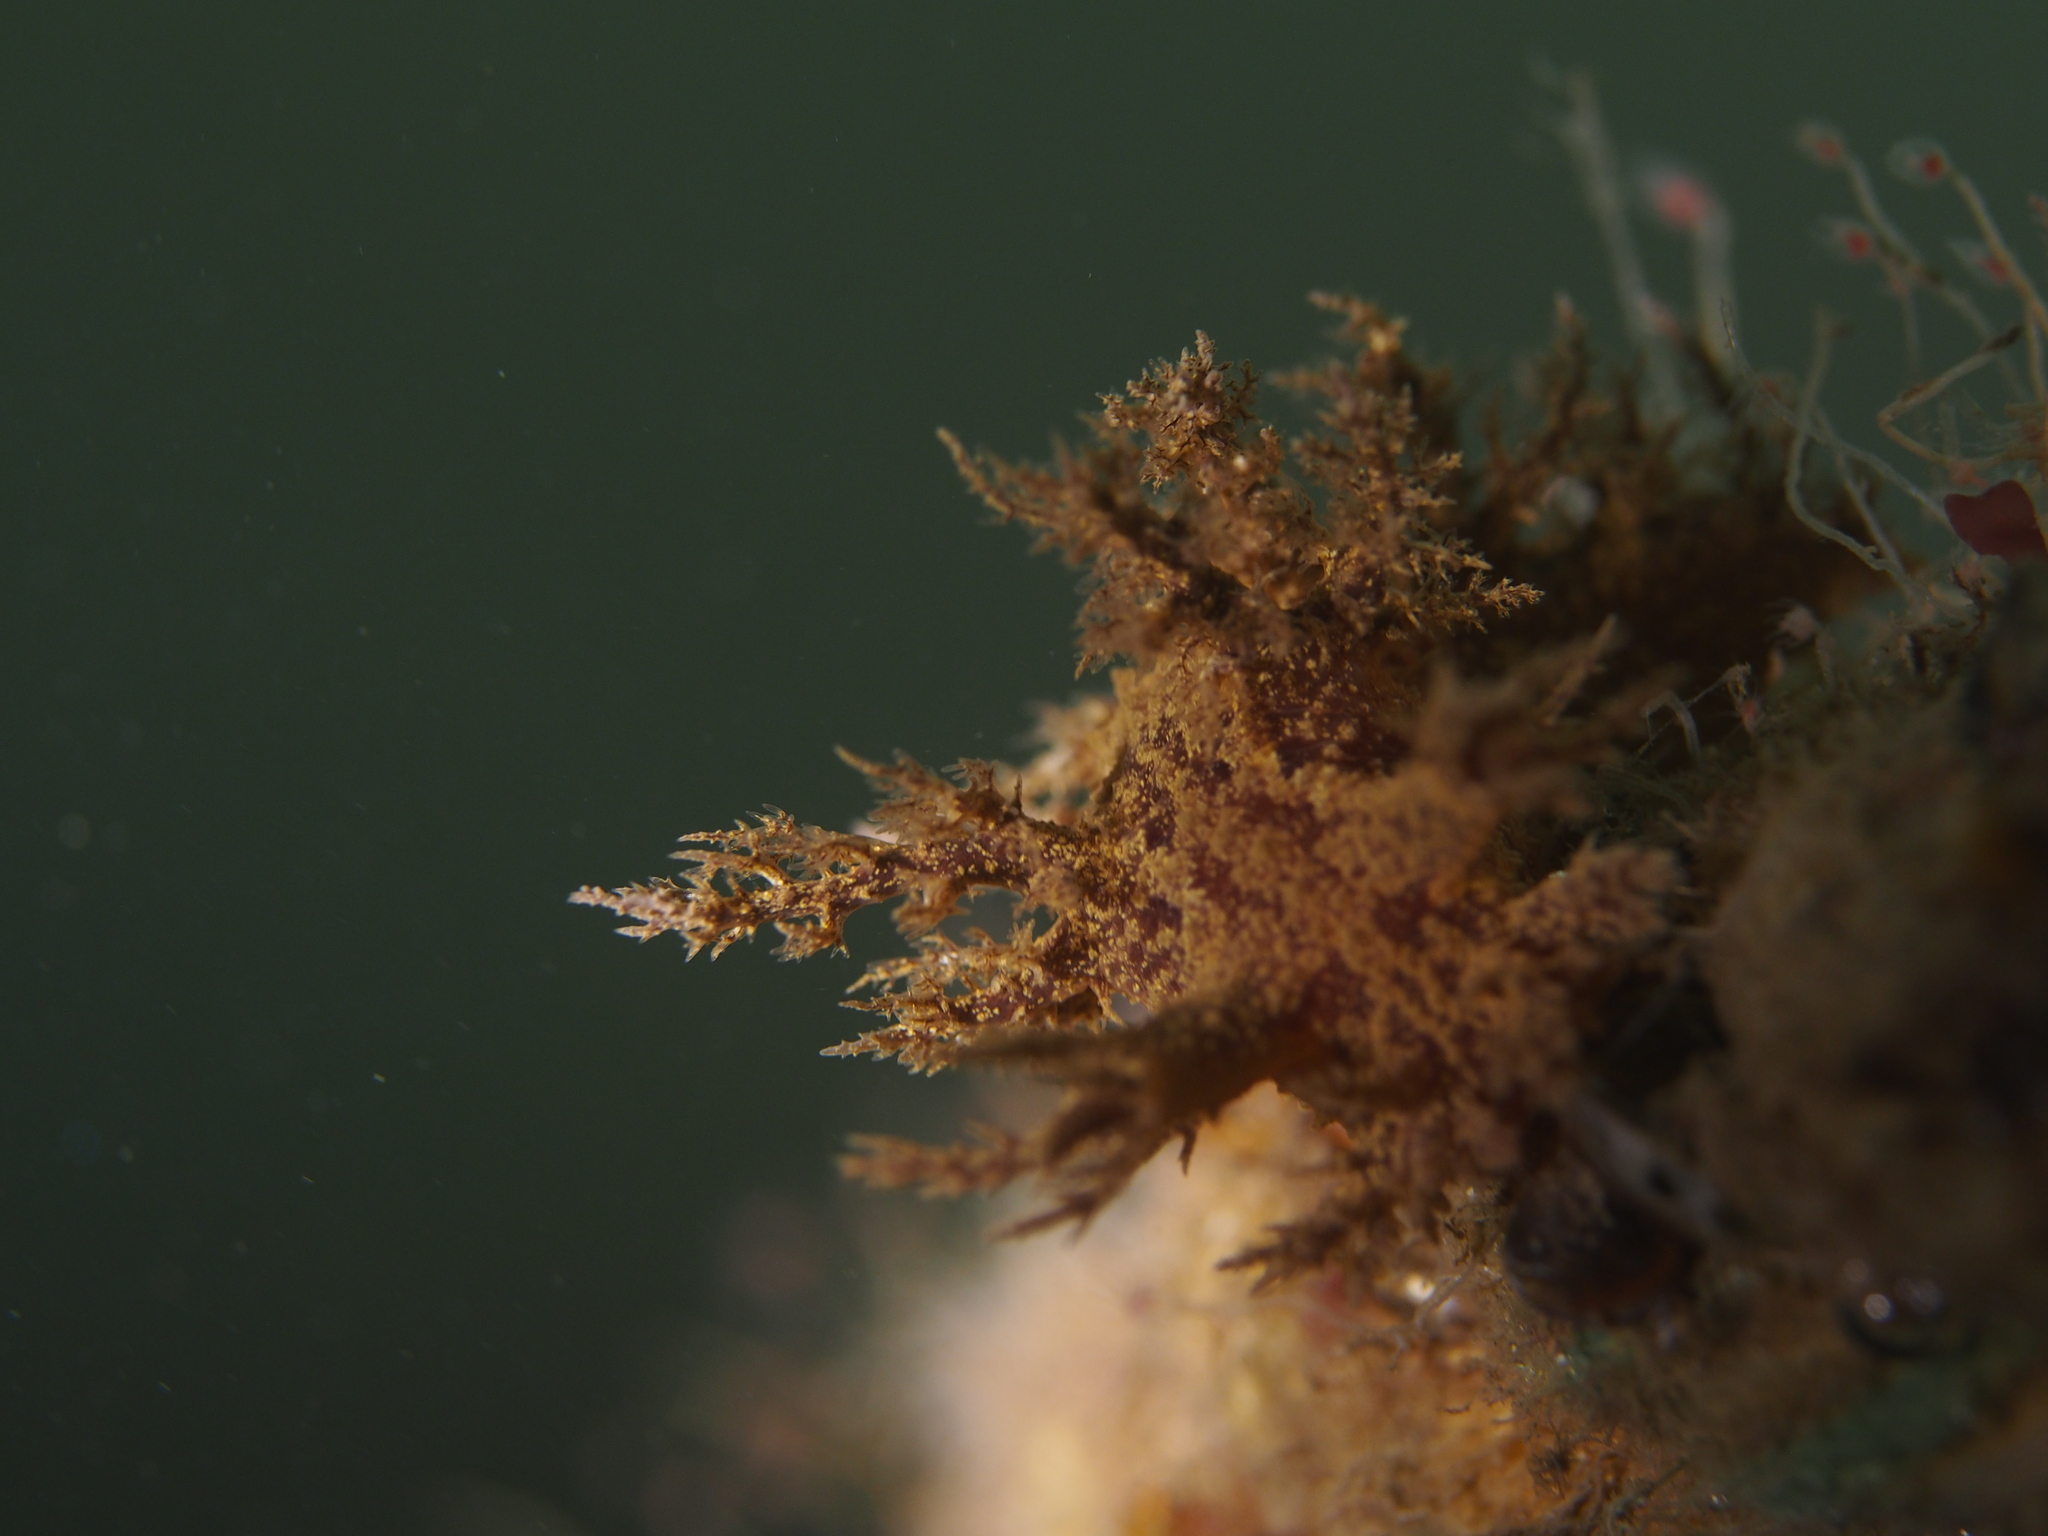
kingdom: Animalia
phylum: Mollusca
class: Gastropoda
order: Nudibranchia
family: Dendronotidae
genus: Dendronotus
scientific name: Dendronotus europaeus
